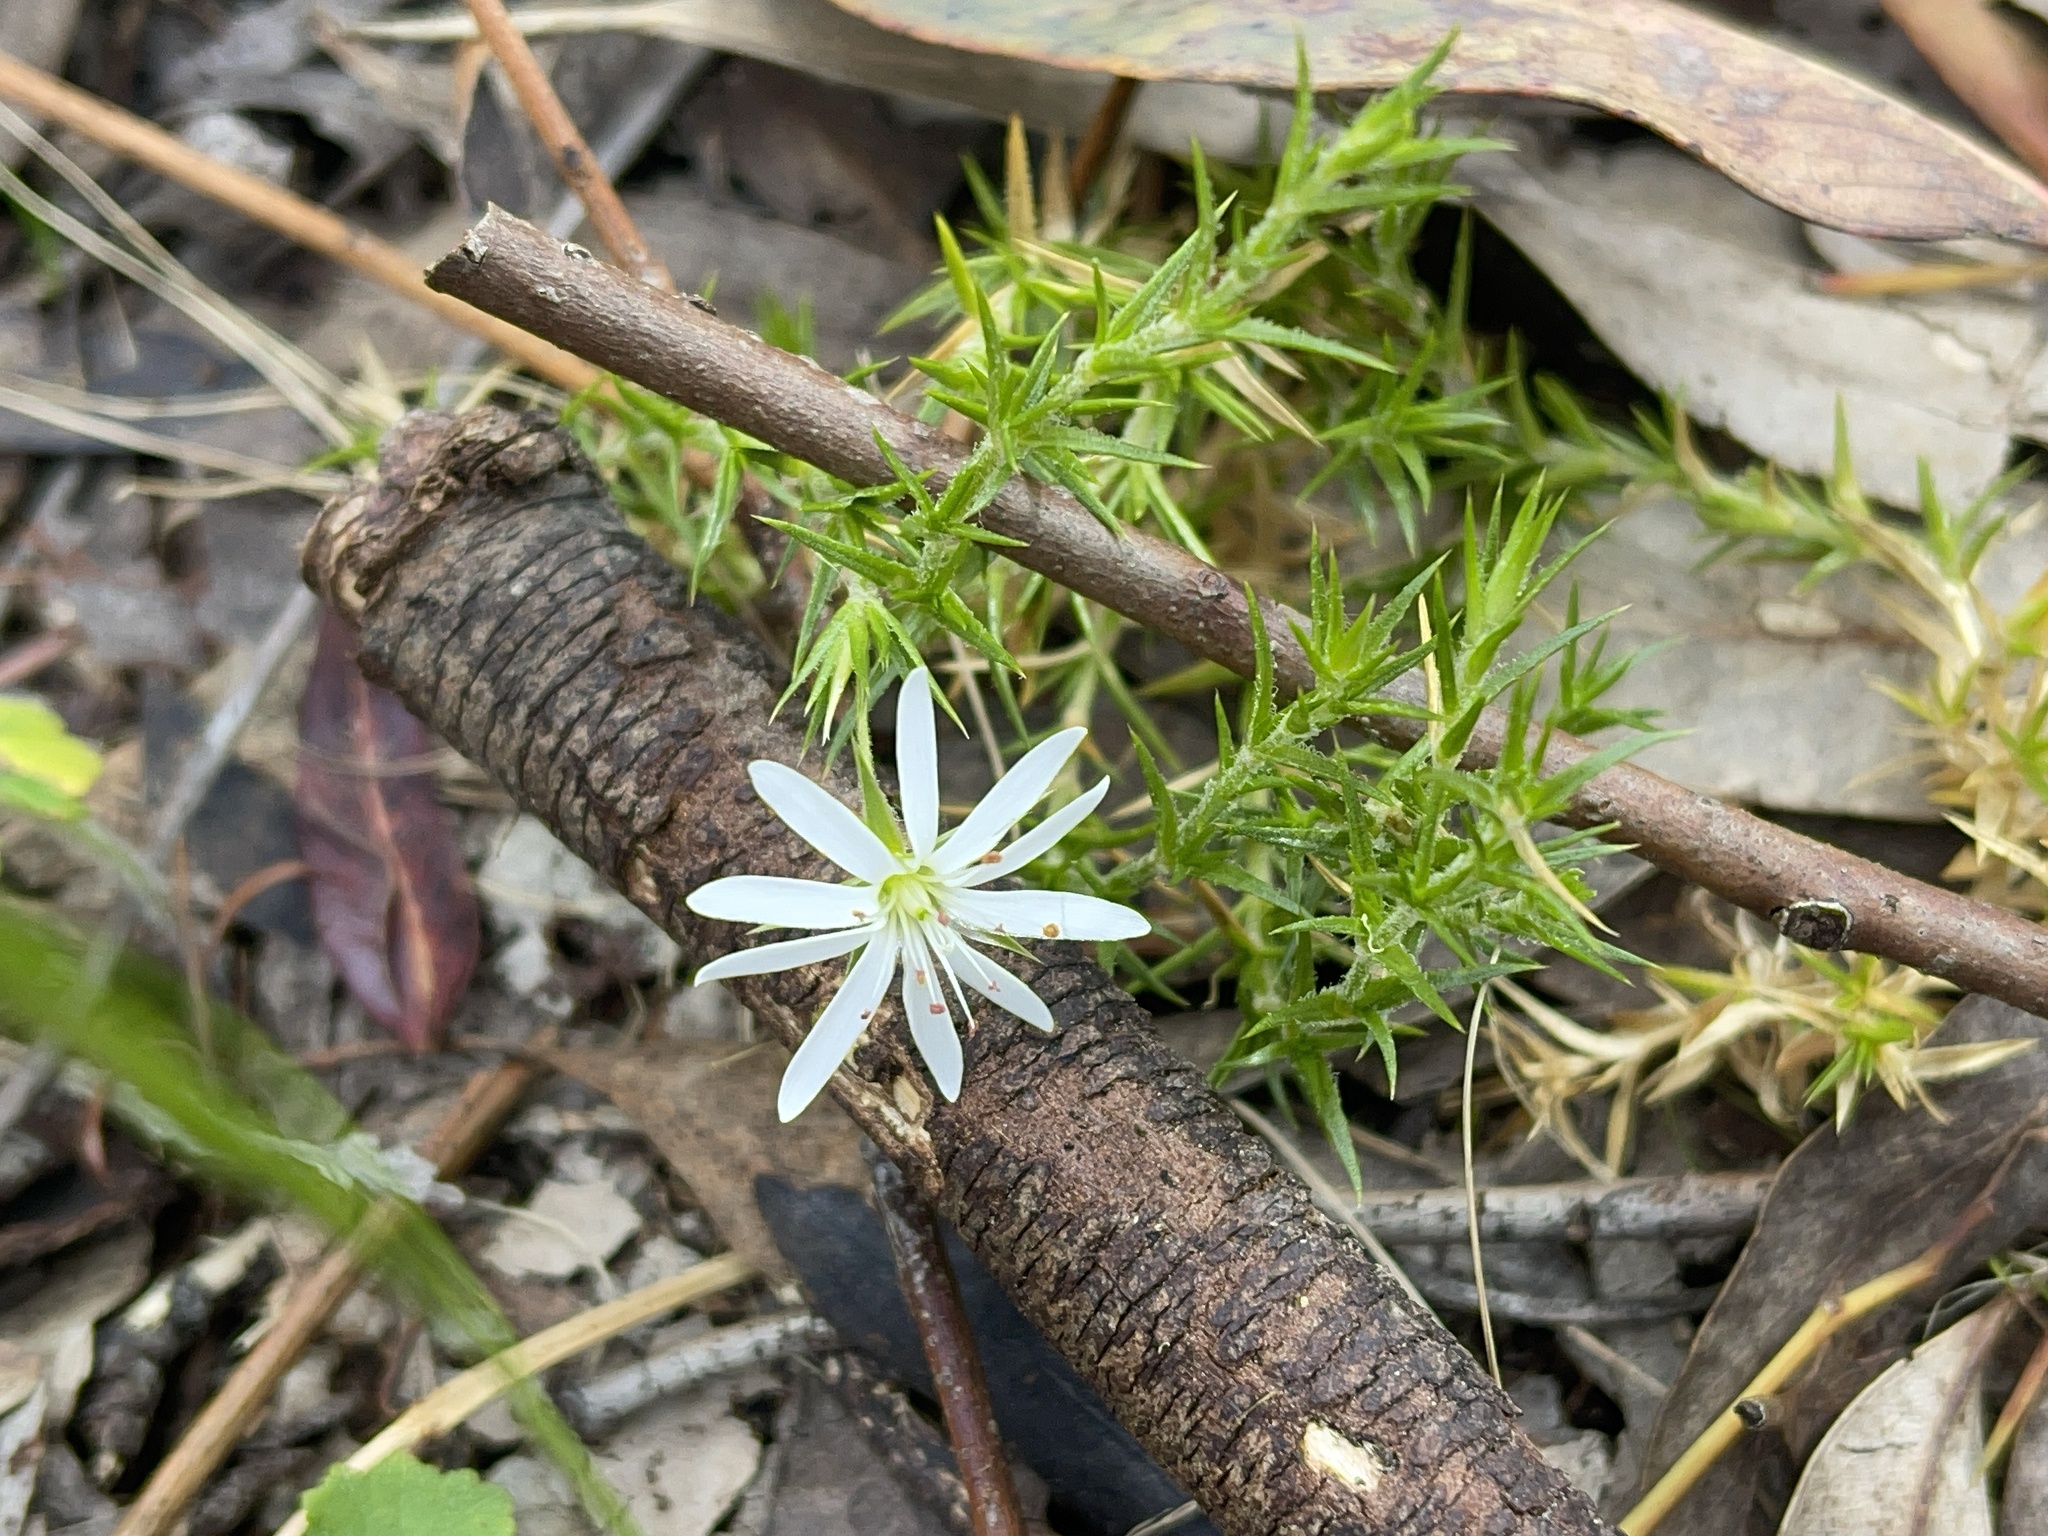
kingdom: Plantae
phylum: Tracheophyta
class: Magnoliopsida
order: Caryophyllales
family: Caryophyllaceae
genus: Stellaria
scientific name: Stellaria pungens
